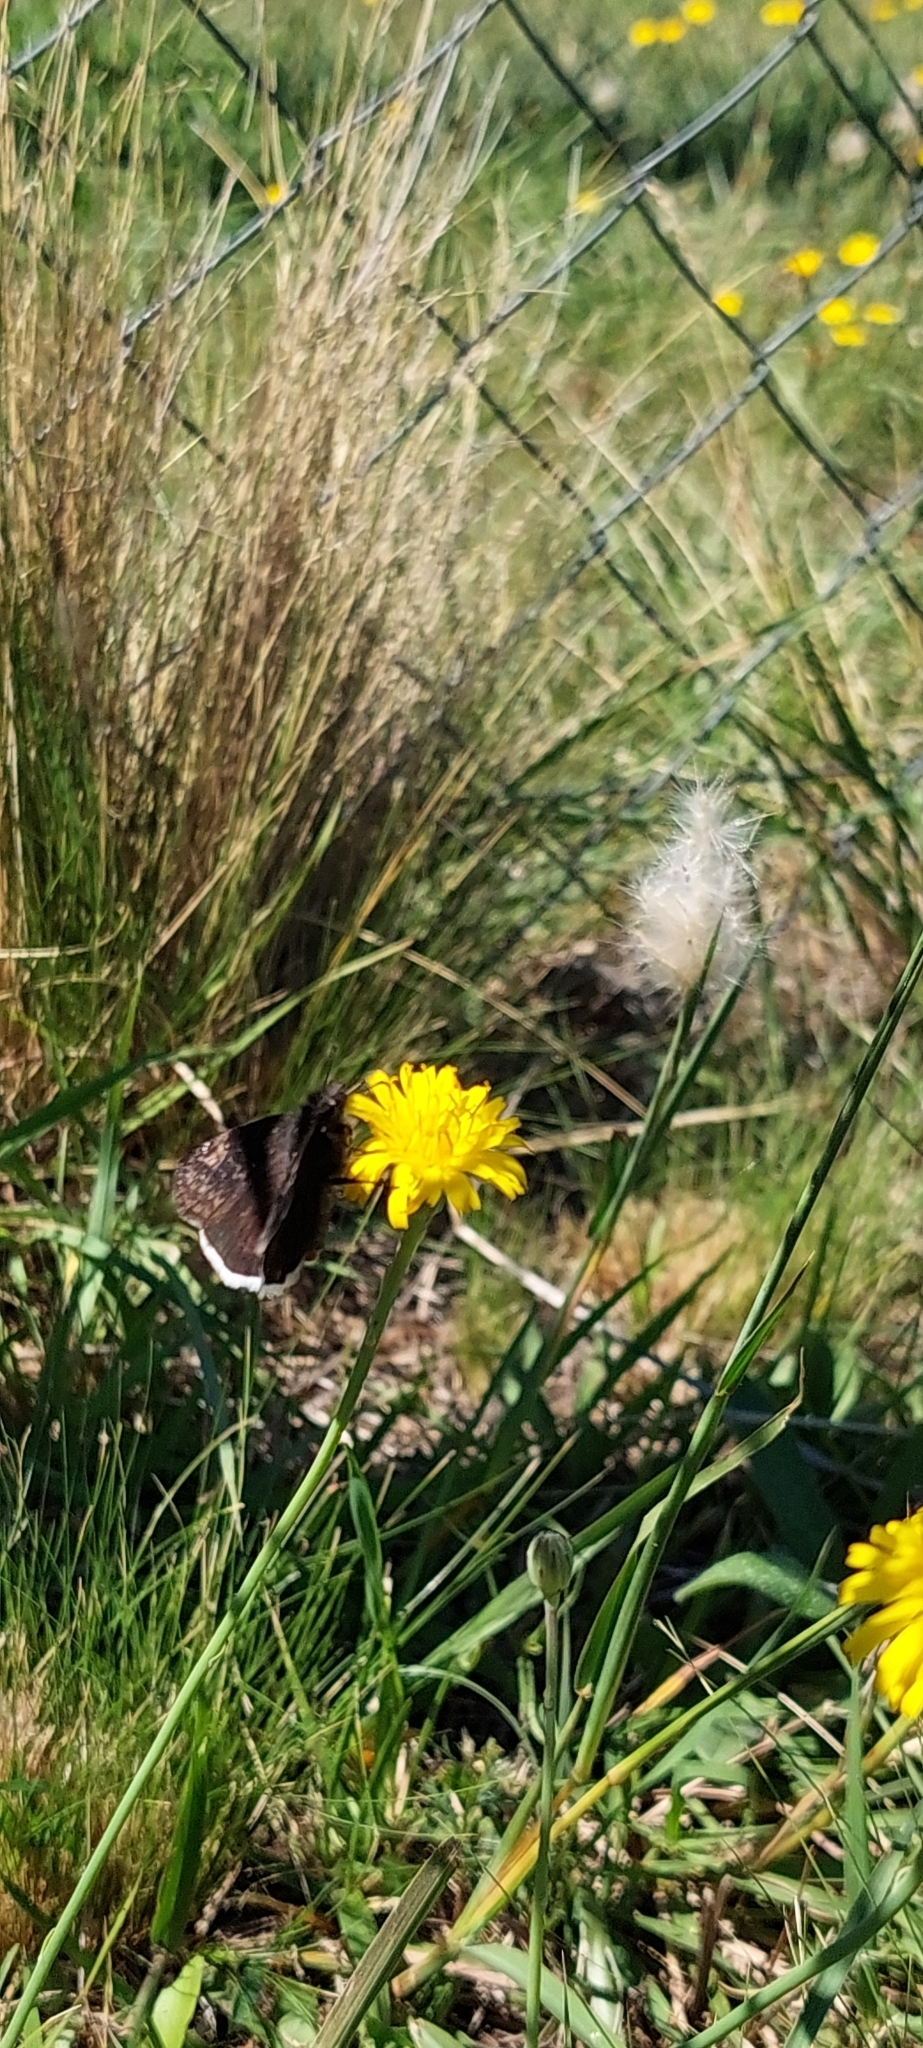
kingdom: Animalia
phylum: Arthropoda
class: Insecta
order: Lepidoptera
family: Hesperiidae
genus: Erynnis
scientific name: Erynnis funeralis
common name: Funereal duskywing
